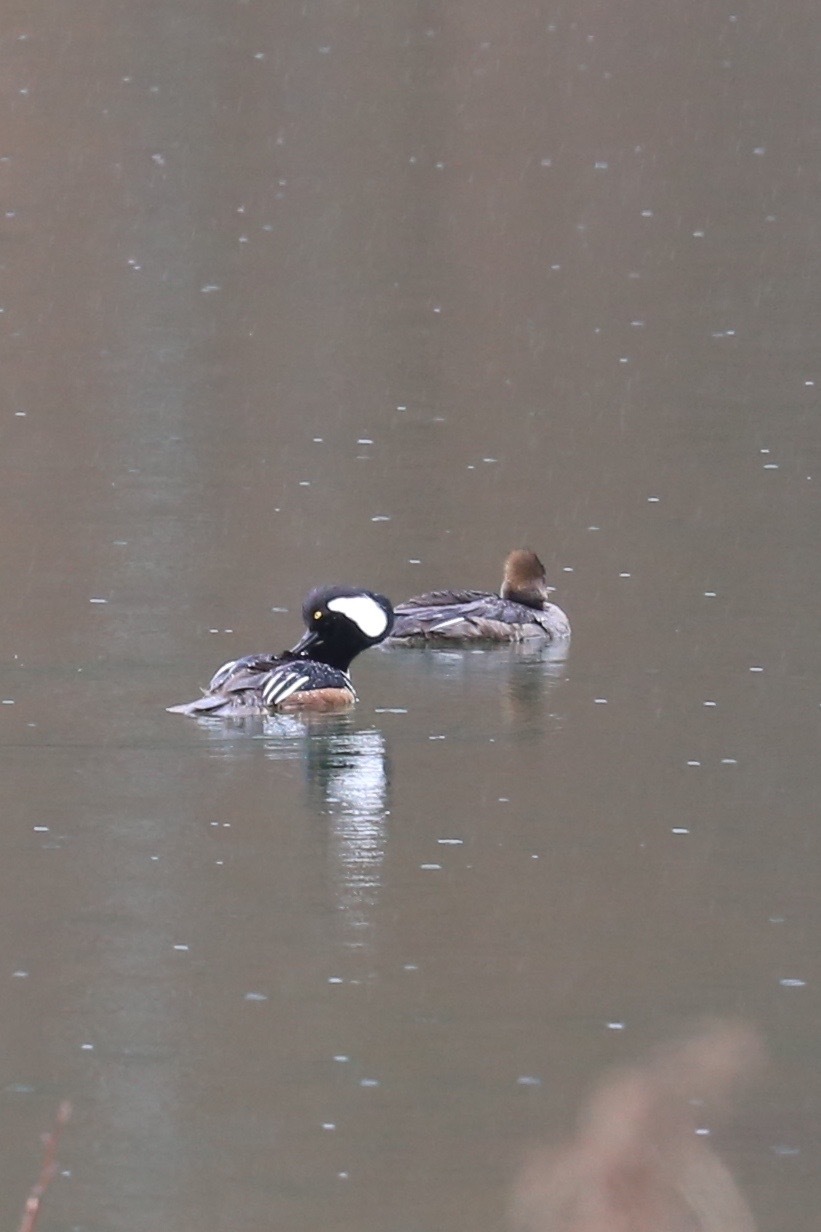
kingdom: Animalia
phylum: Chordata
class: Aves
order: Anseriformes
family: Anatidae
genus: Lophodytes
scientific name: Lophodytes cucullatus
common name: Hooded merganser
